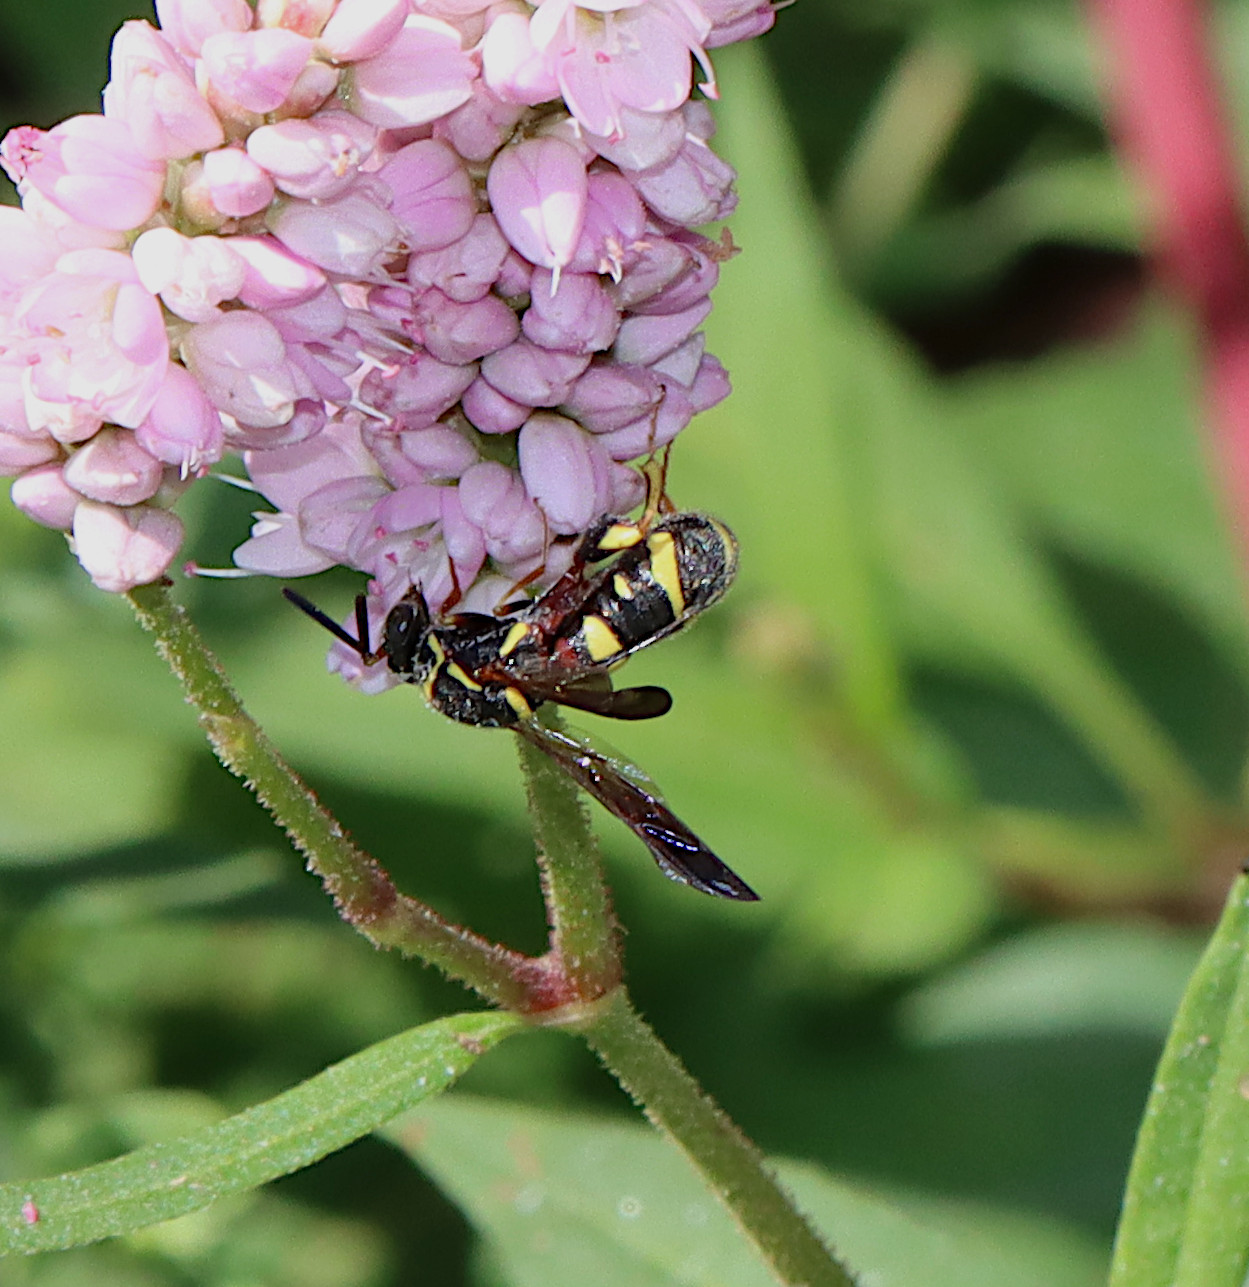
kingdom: Animalia
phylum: Arthropoda
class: Insecta
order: Hymenoptera
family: Leucospidae
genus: Leucospis
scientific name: Leucospis affinis
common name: Wasp
